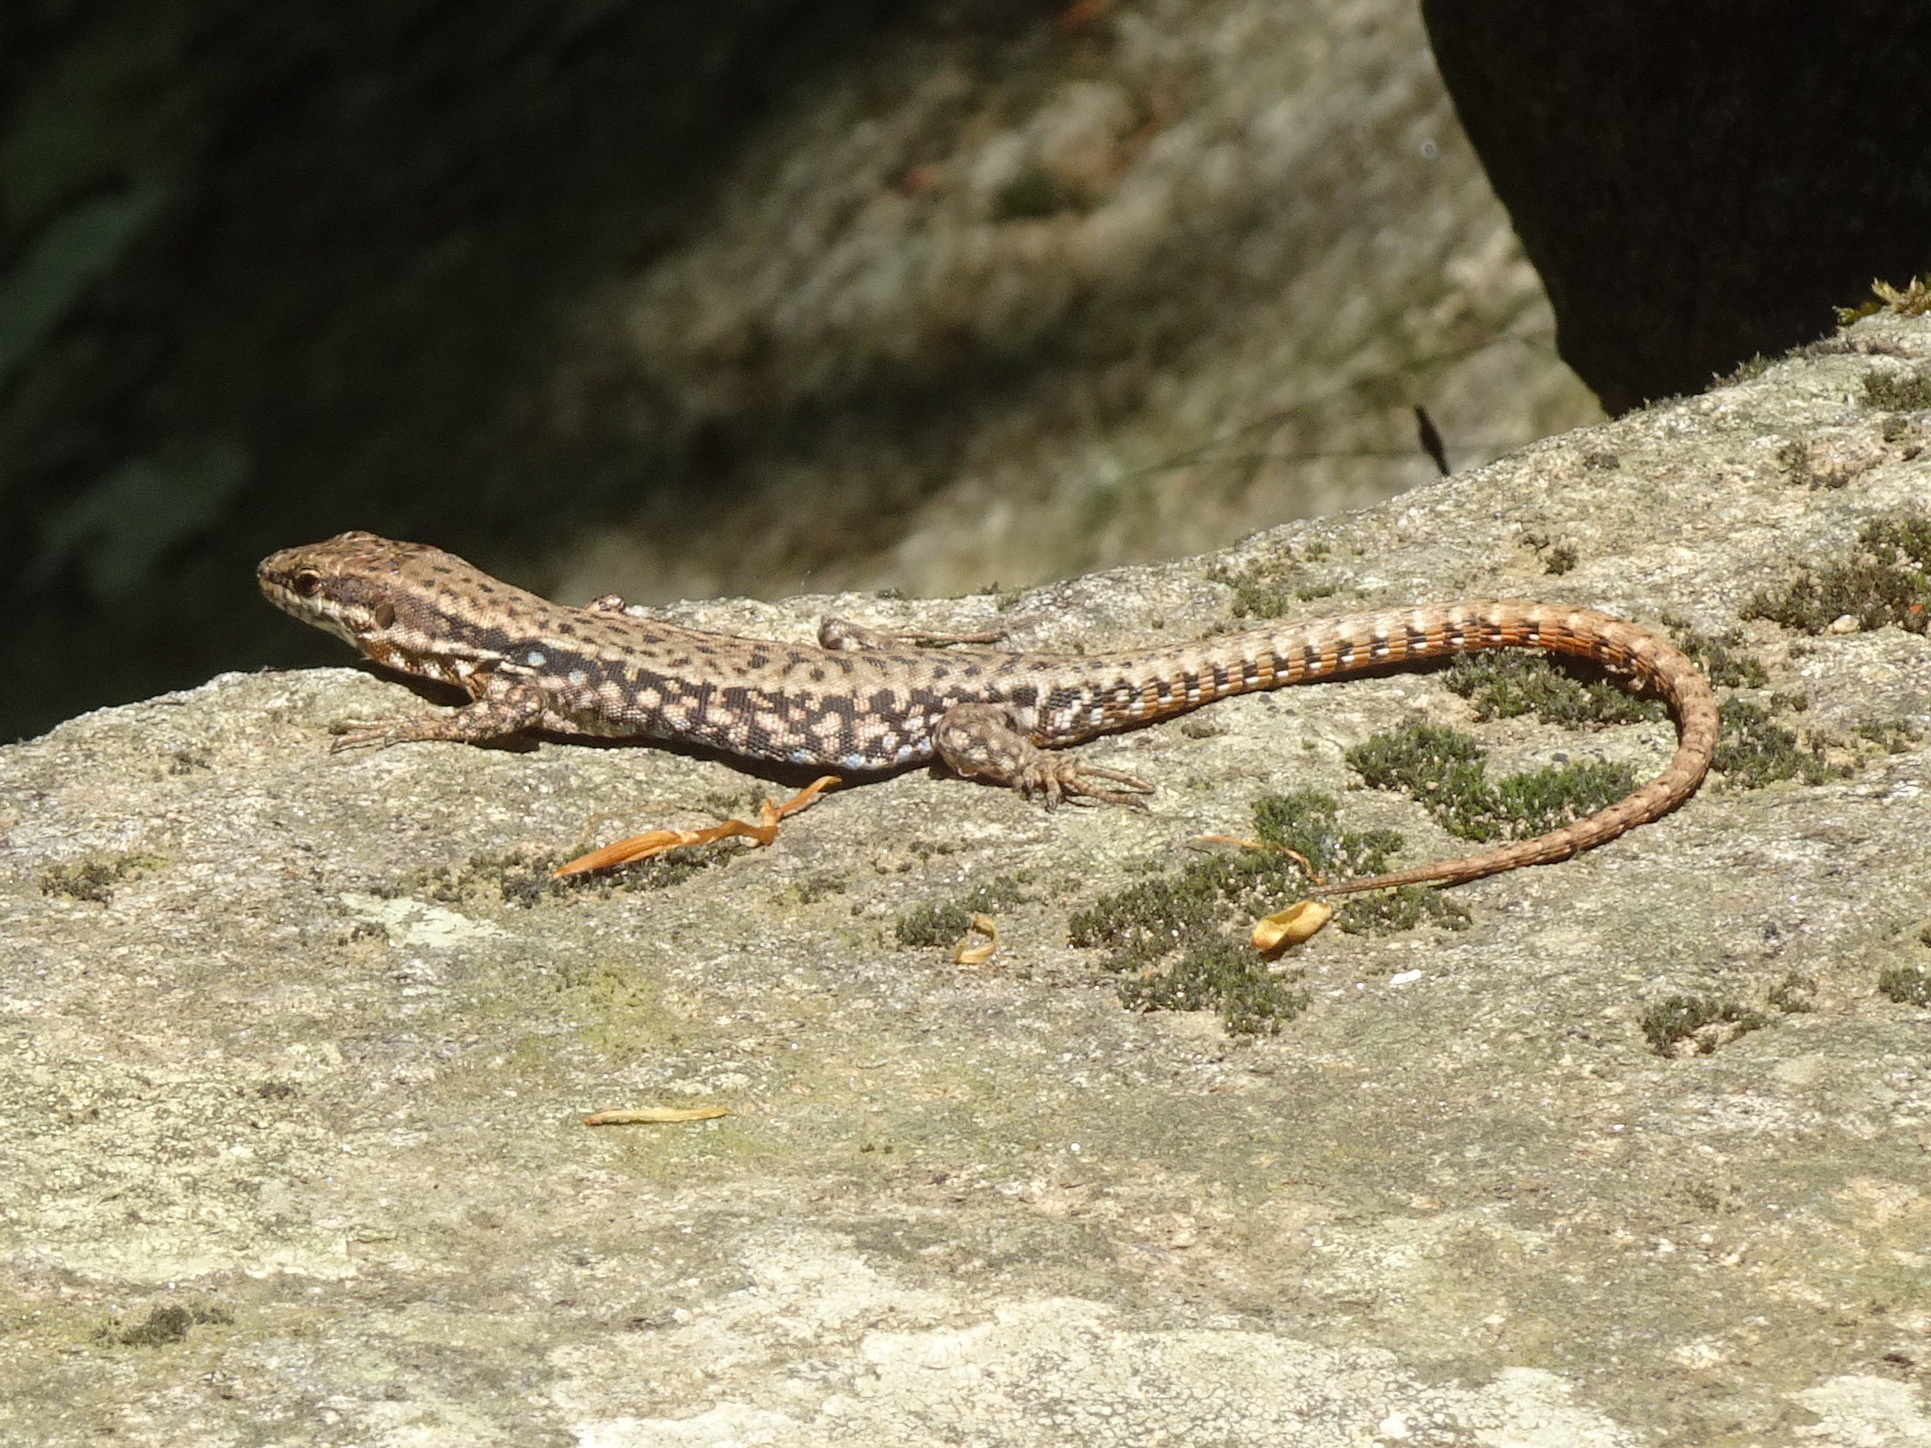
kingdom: Animalia
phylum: Chordata
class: Squamata
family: Lacertidae
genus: Podarcis
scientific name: Podarcis muralis
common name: Common wall lizard
